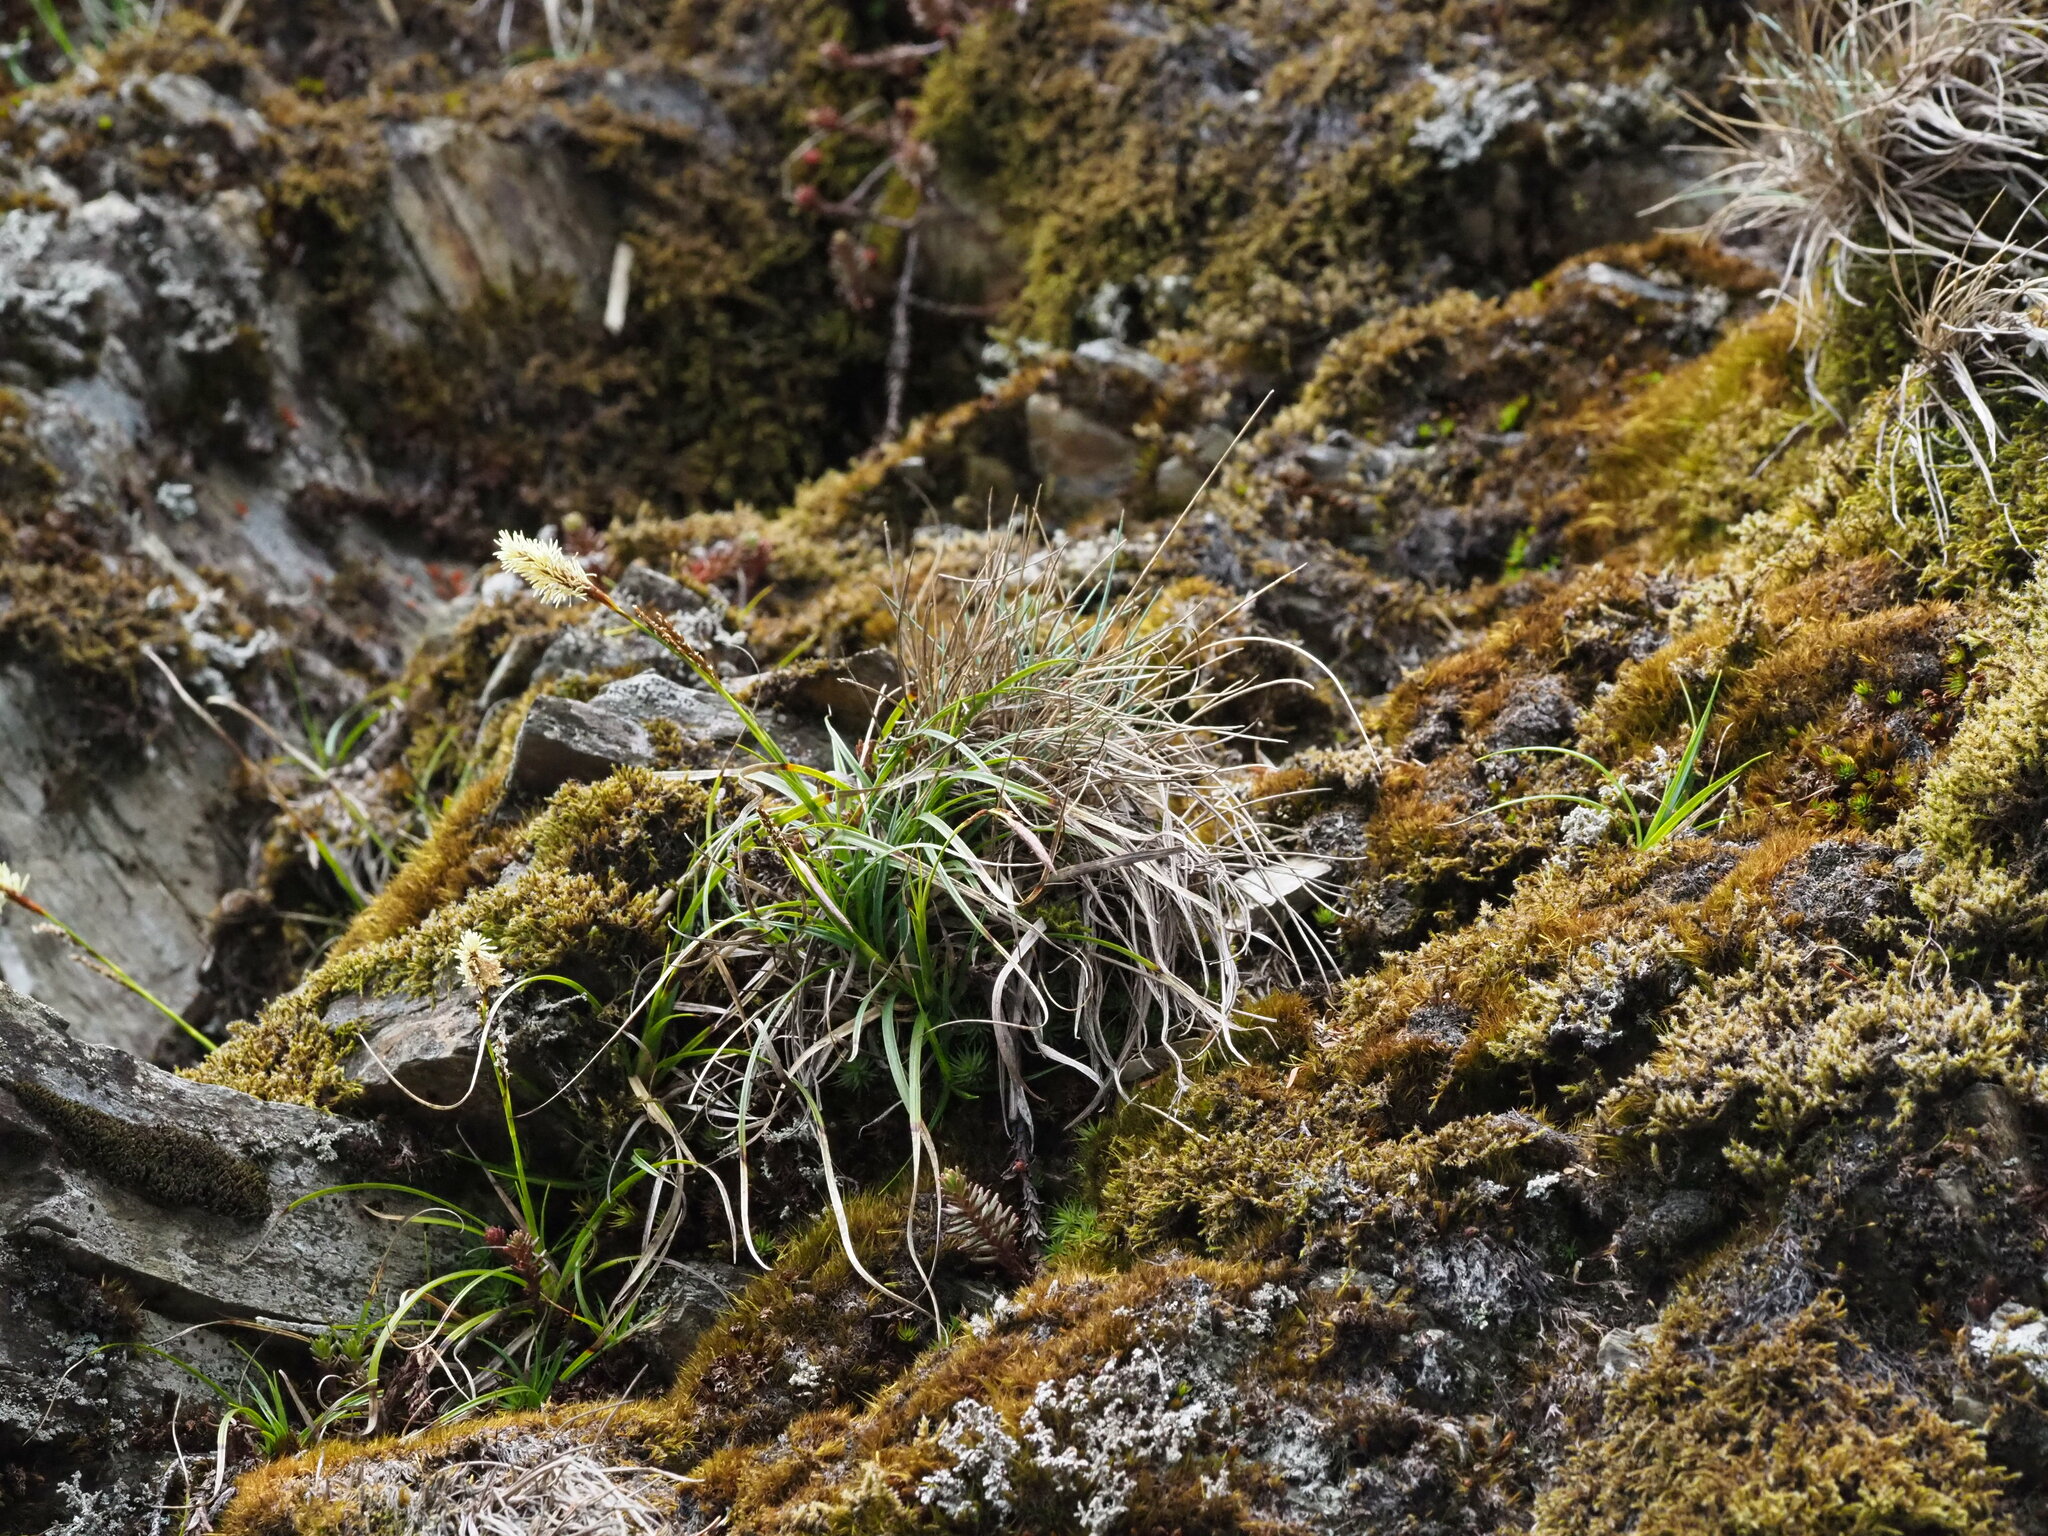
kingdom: Plantae
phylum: Tracheophyta
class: Liliopsida
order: Poales
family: Cyperaceae
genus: Carex
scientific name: Carex chrysolepis
